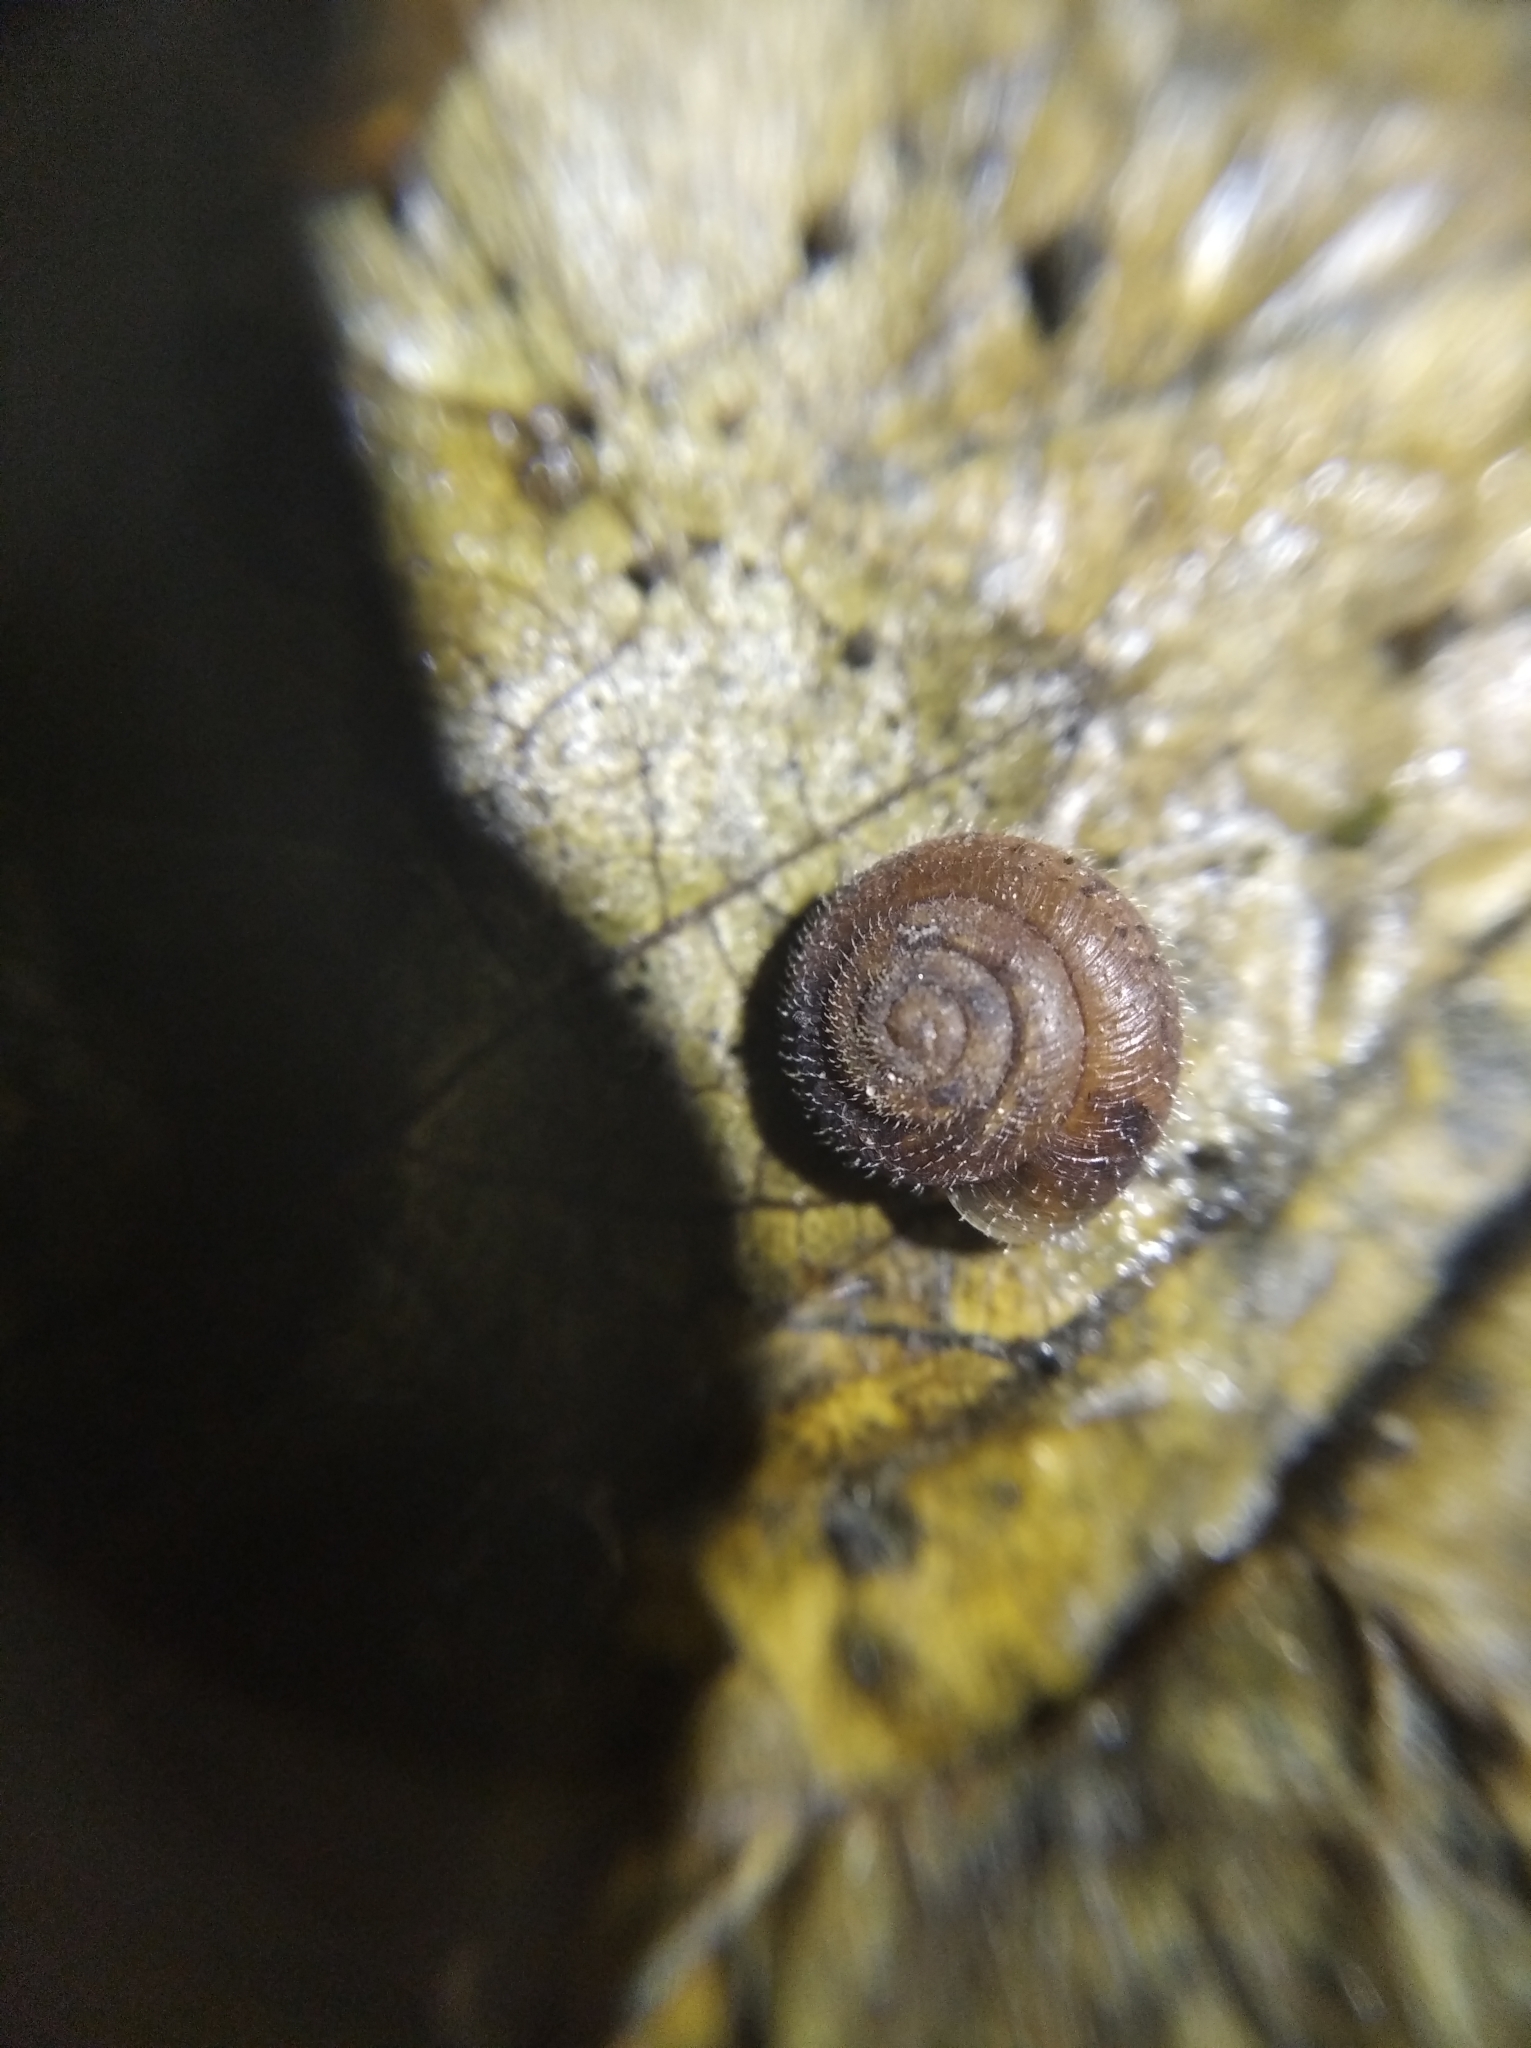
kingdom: Animalia
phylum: Mollusca
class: Gastropoda
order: Stylommatophora
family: Hygromiidae
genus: Trochulus
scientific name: Trochulus hispidus
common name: Hairy snail
